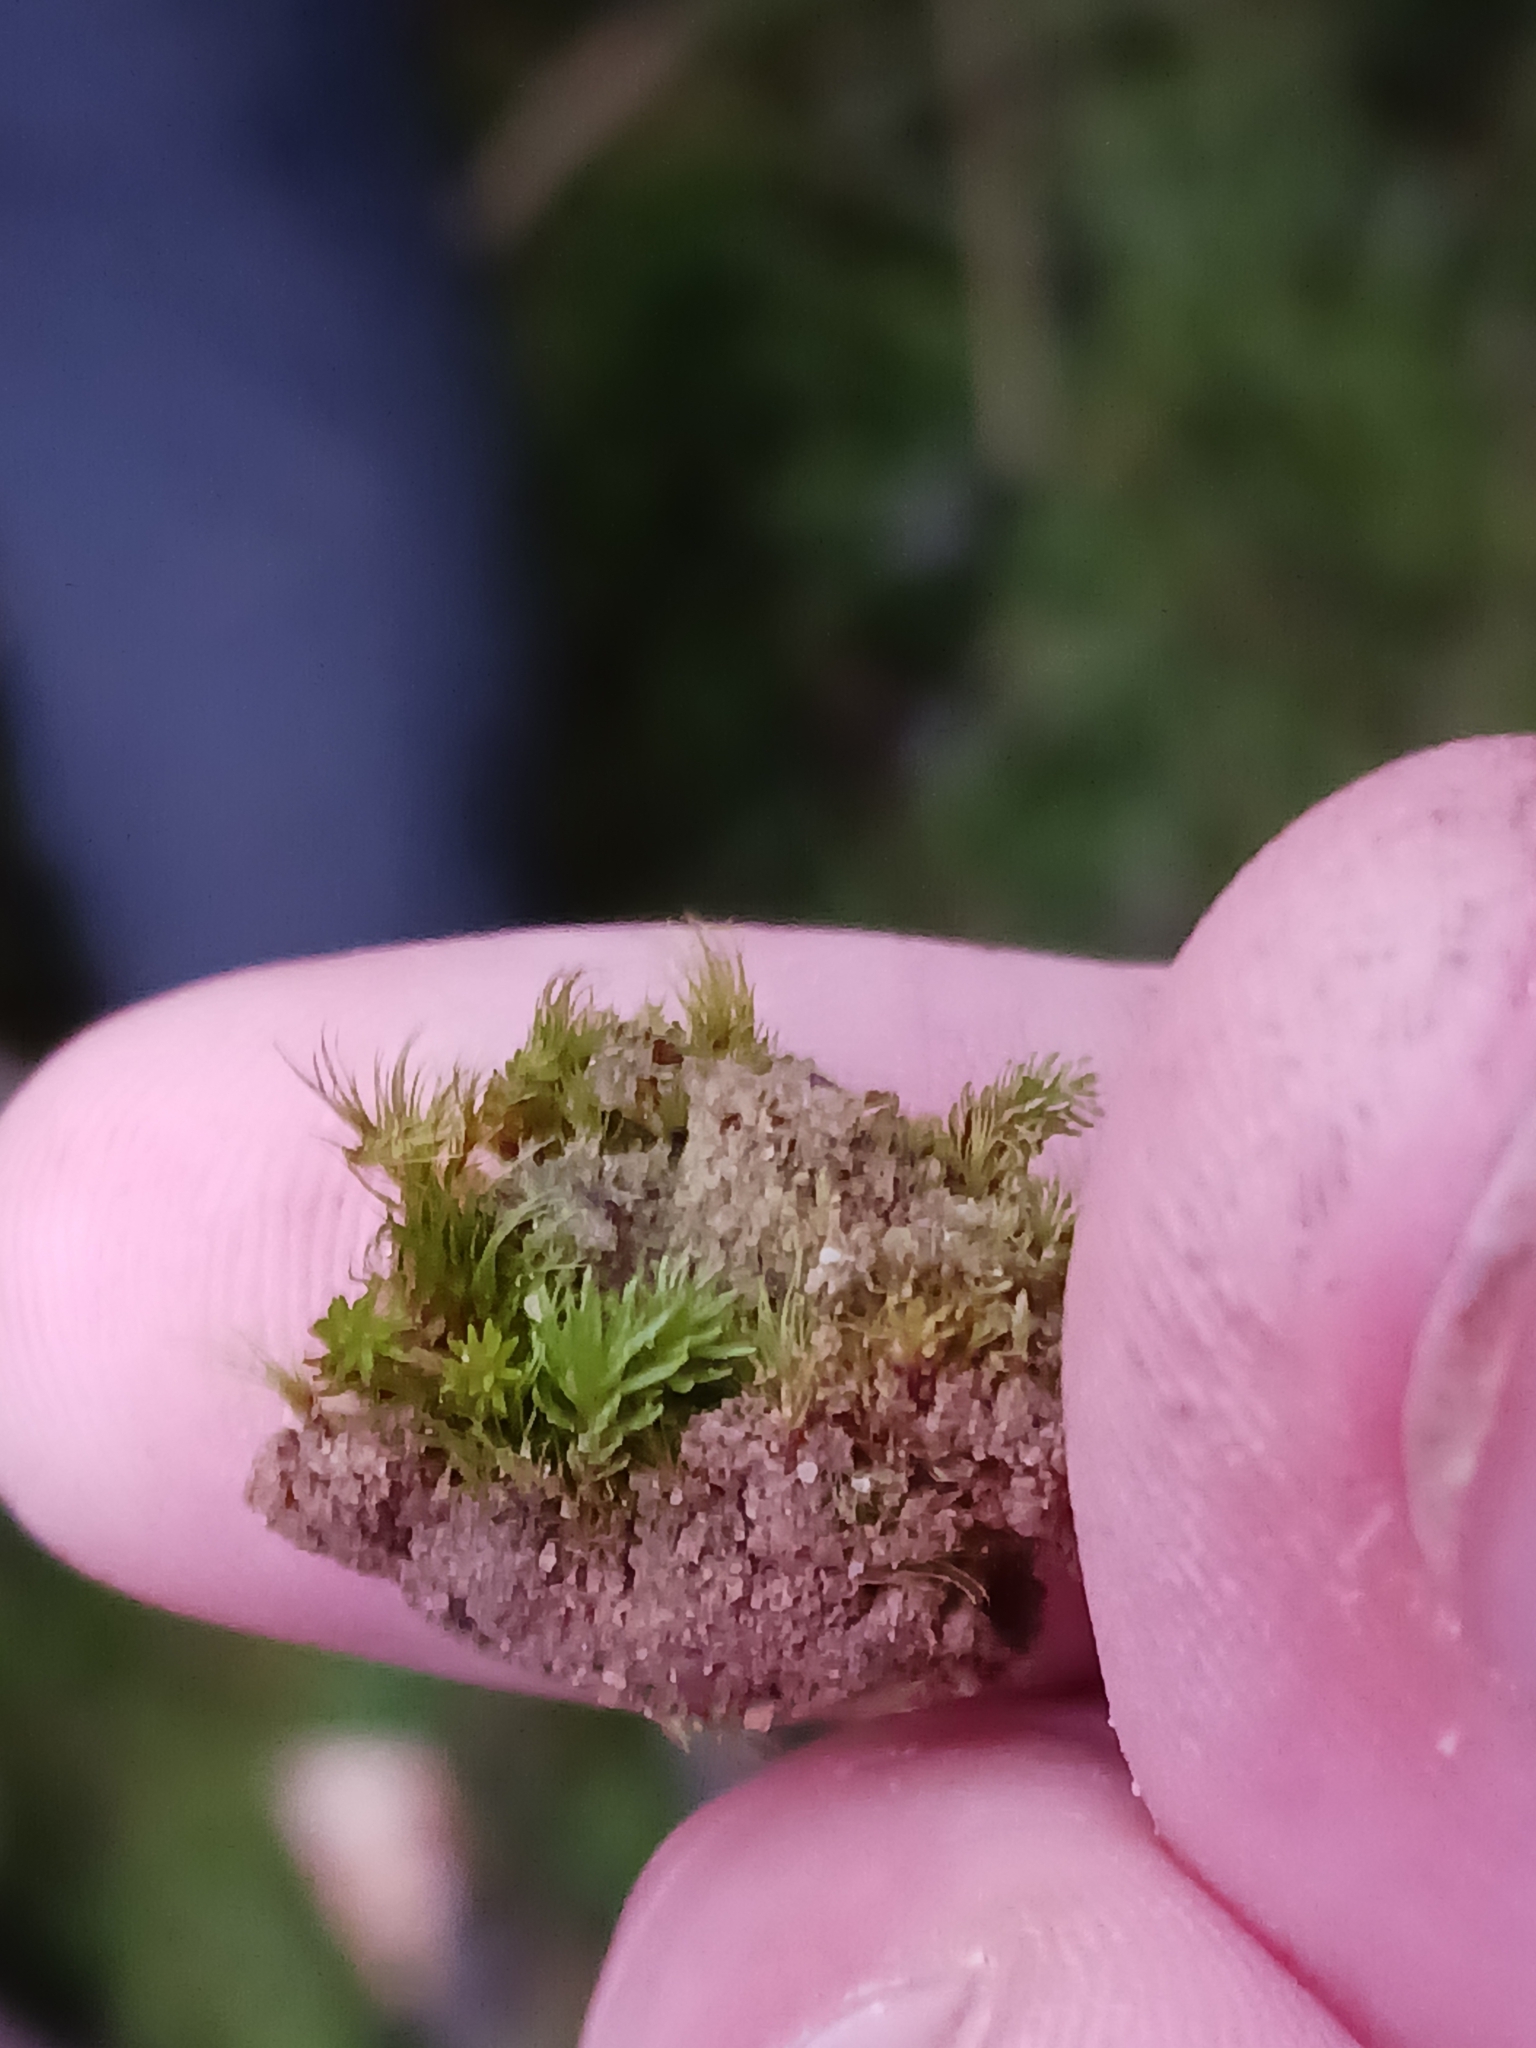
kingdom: Plantae
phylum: Bryophyta
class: Polytrichopsida
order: Polytrichales
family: Polytrichaceae
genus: Oligotrichum
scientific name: Oligotrichum hercynicum
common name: Hercynian hair moss
